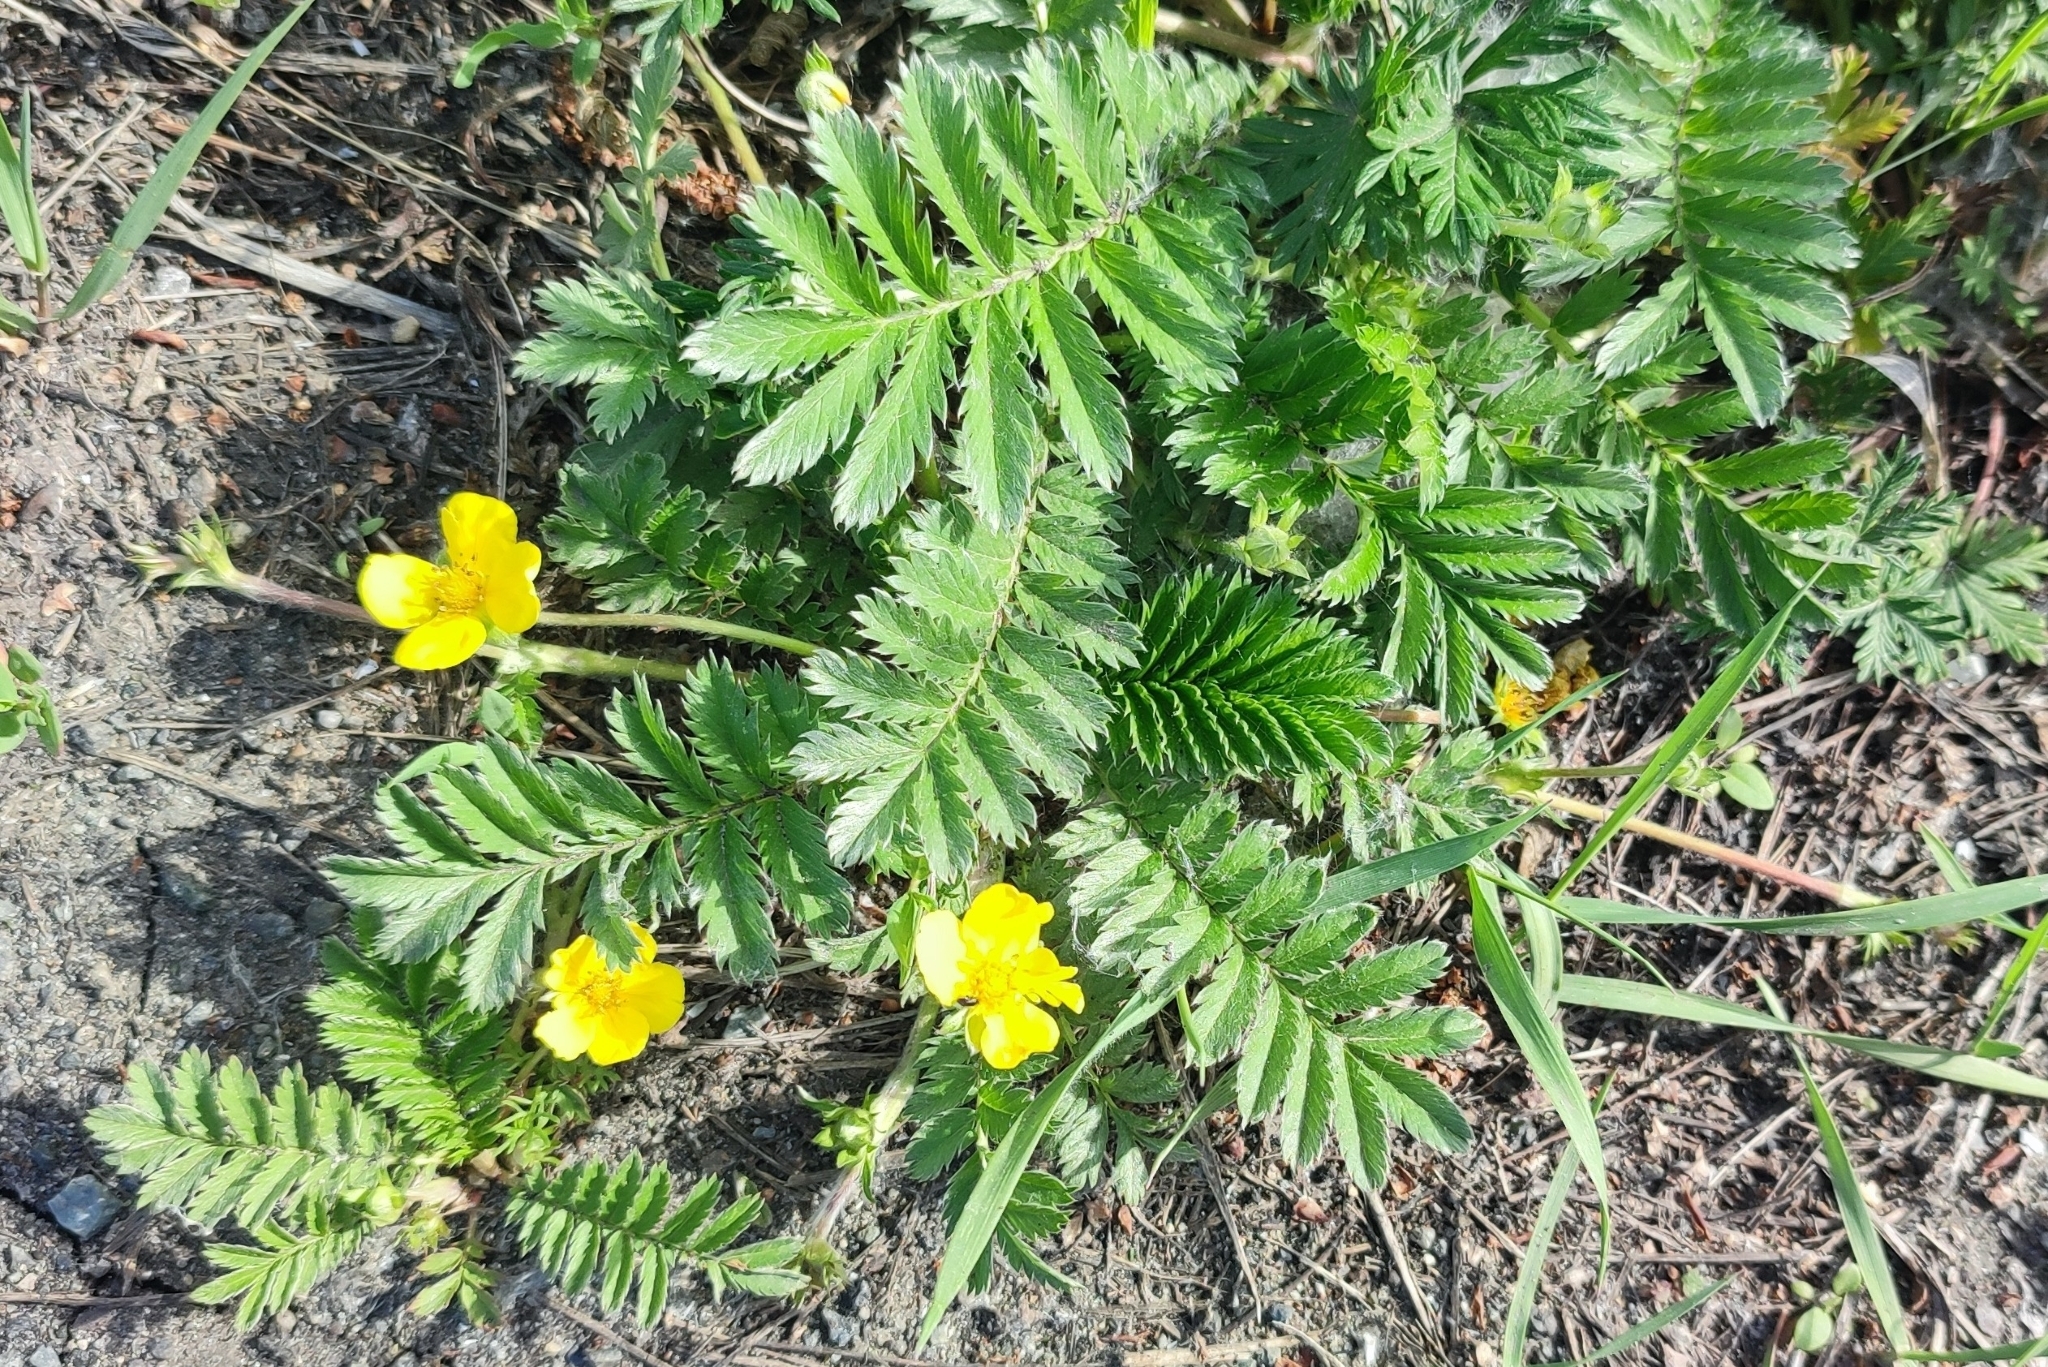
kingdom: Plantae
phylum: Tracheophyta
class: Magnoliopsida
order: Rosales
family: Rosaceae
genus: Argentina
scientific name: Argentina anserina
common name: Common silverweed
